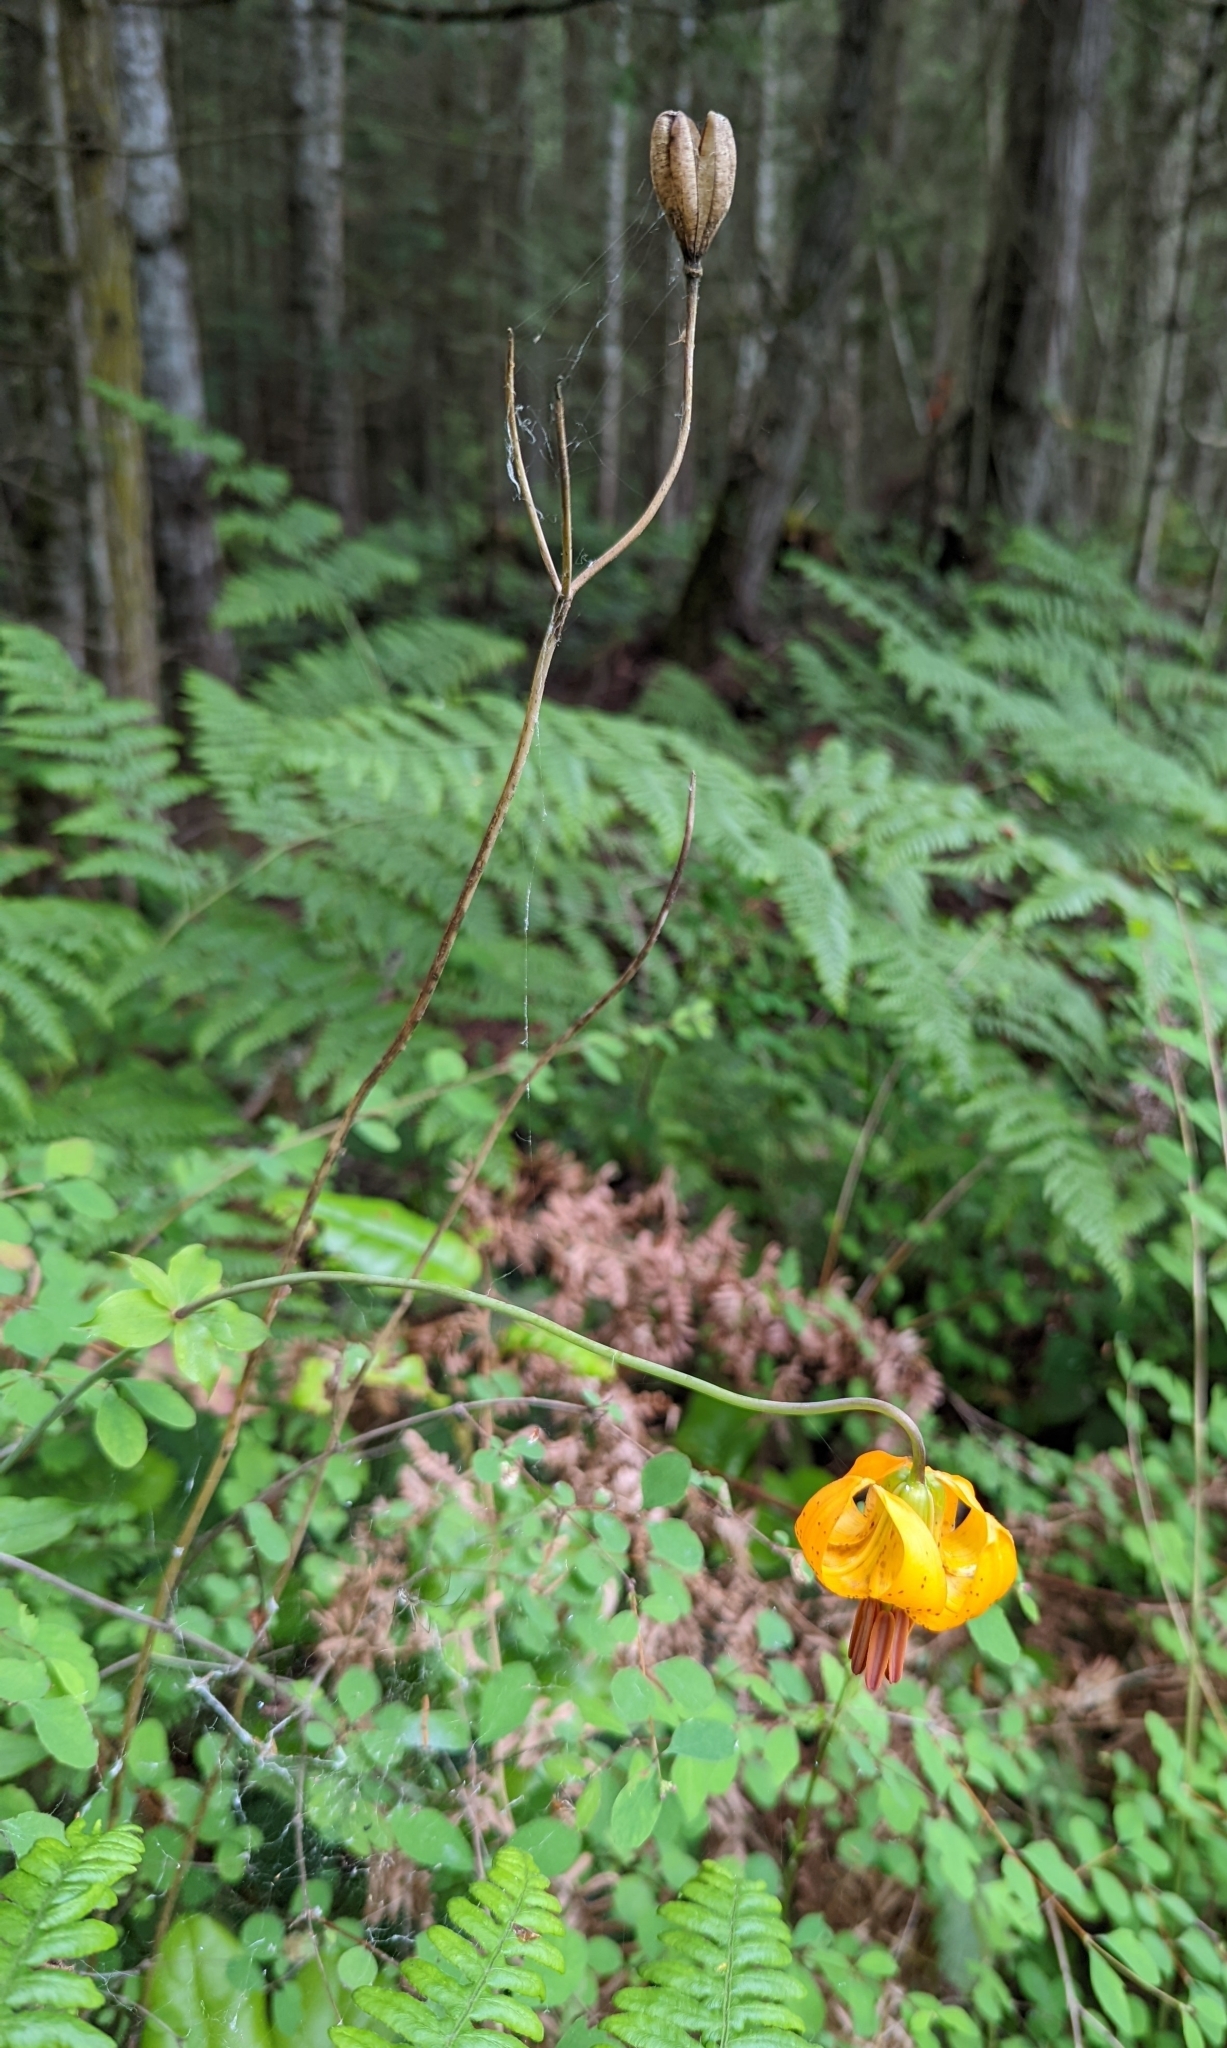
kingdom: Plantae
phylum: Tracheophyta
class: Liliopsida
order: Liliales
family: Liliaceae
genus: Lilium
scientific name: Lilium columbianum
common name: Columbia lily
